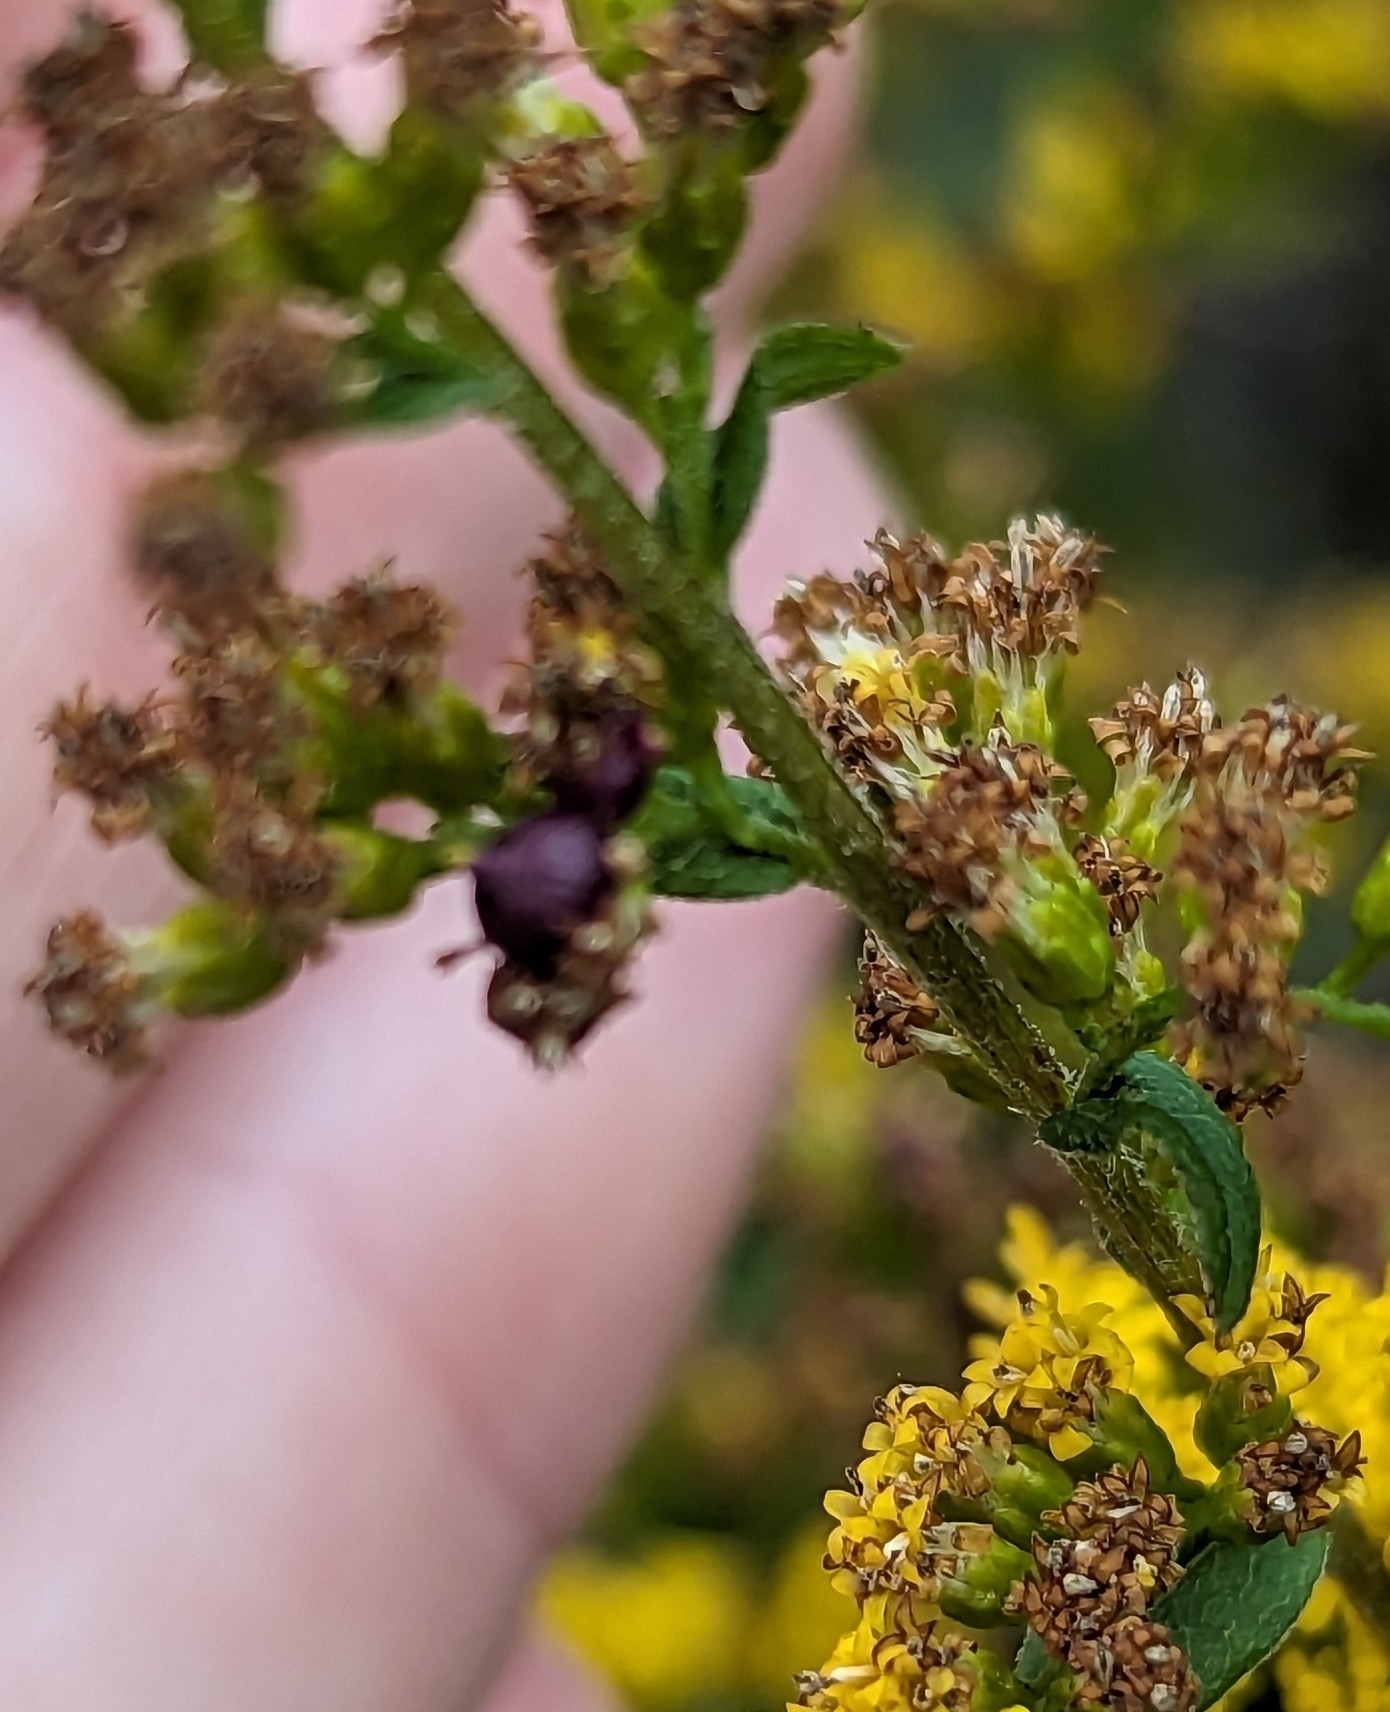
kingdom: Animalia
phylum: Arthropoda
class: Insecta
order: Diptera
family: Cecidomyiidae
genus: Schizomyia
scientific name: Schizomyia racemicola
